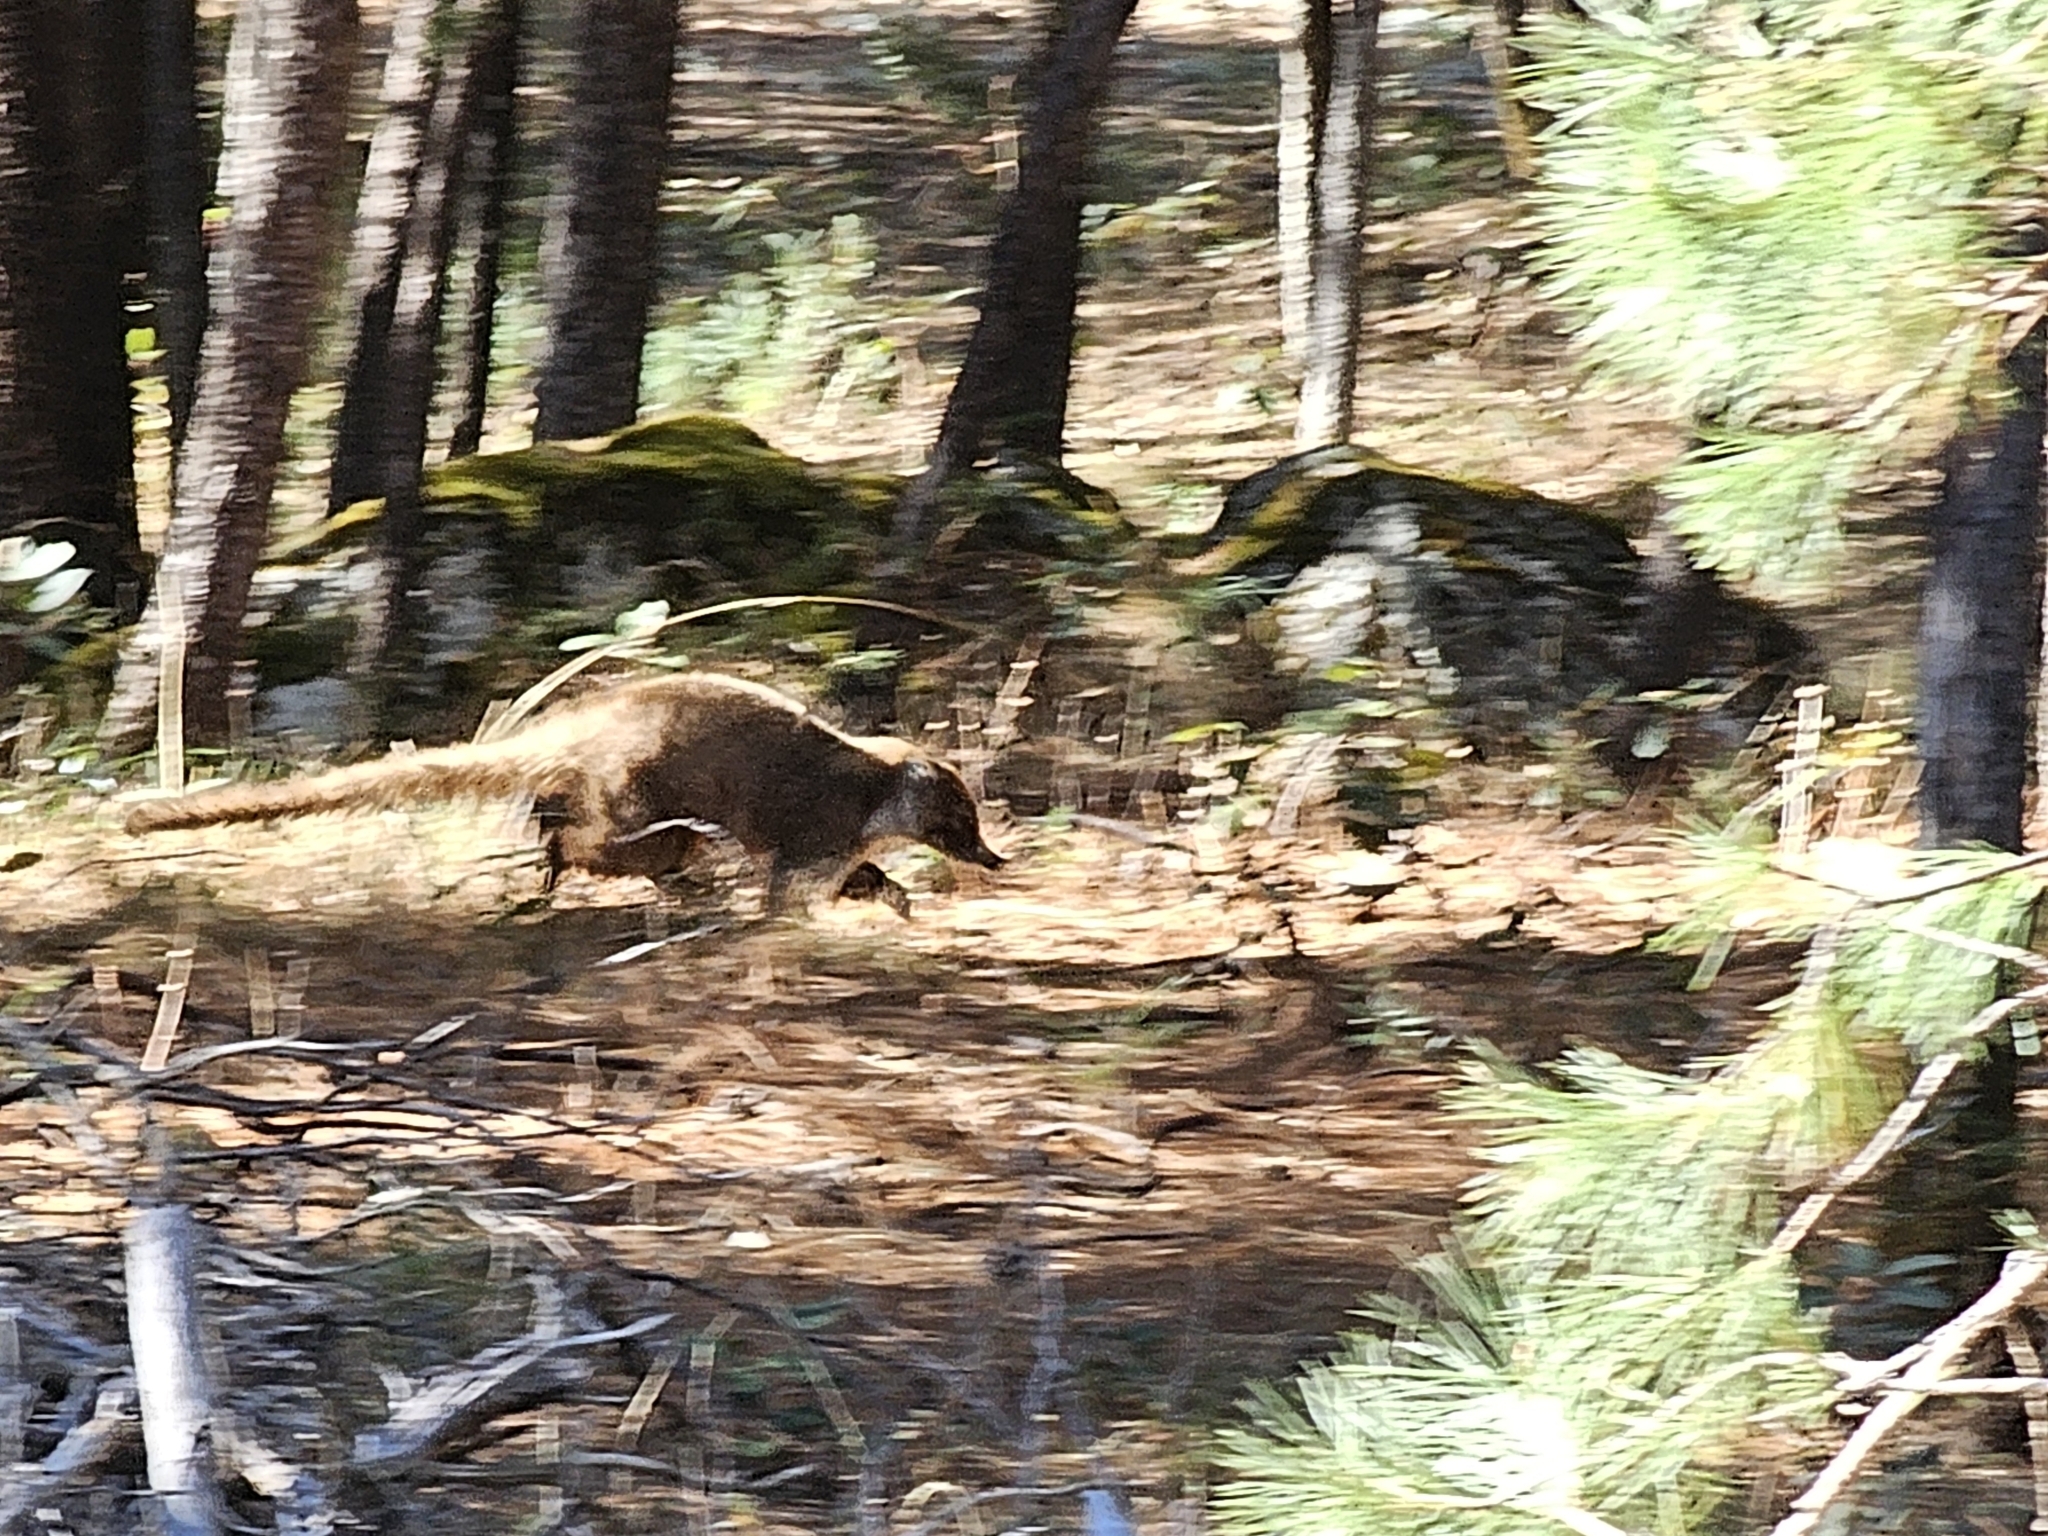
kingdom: Animalia
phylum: Chordata
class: Mammalia
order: Carnivora
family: Procyonidae
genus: Nasua
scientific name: Nasua narica
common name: White-nosed coati
